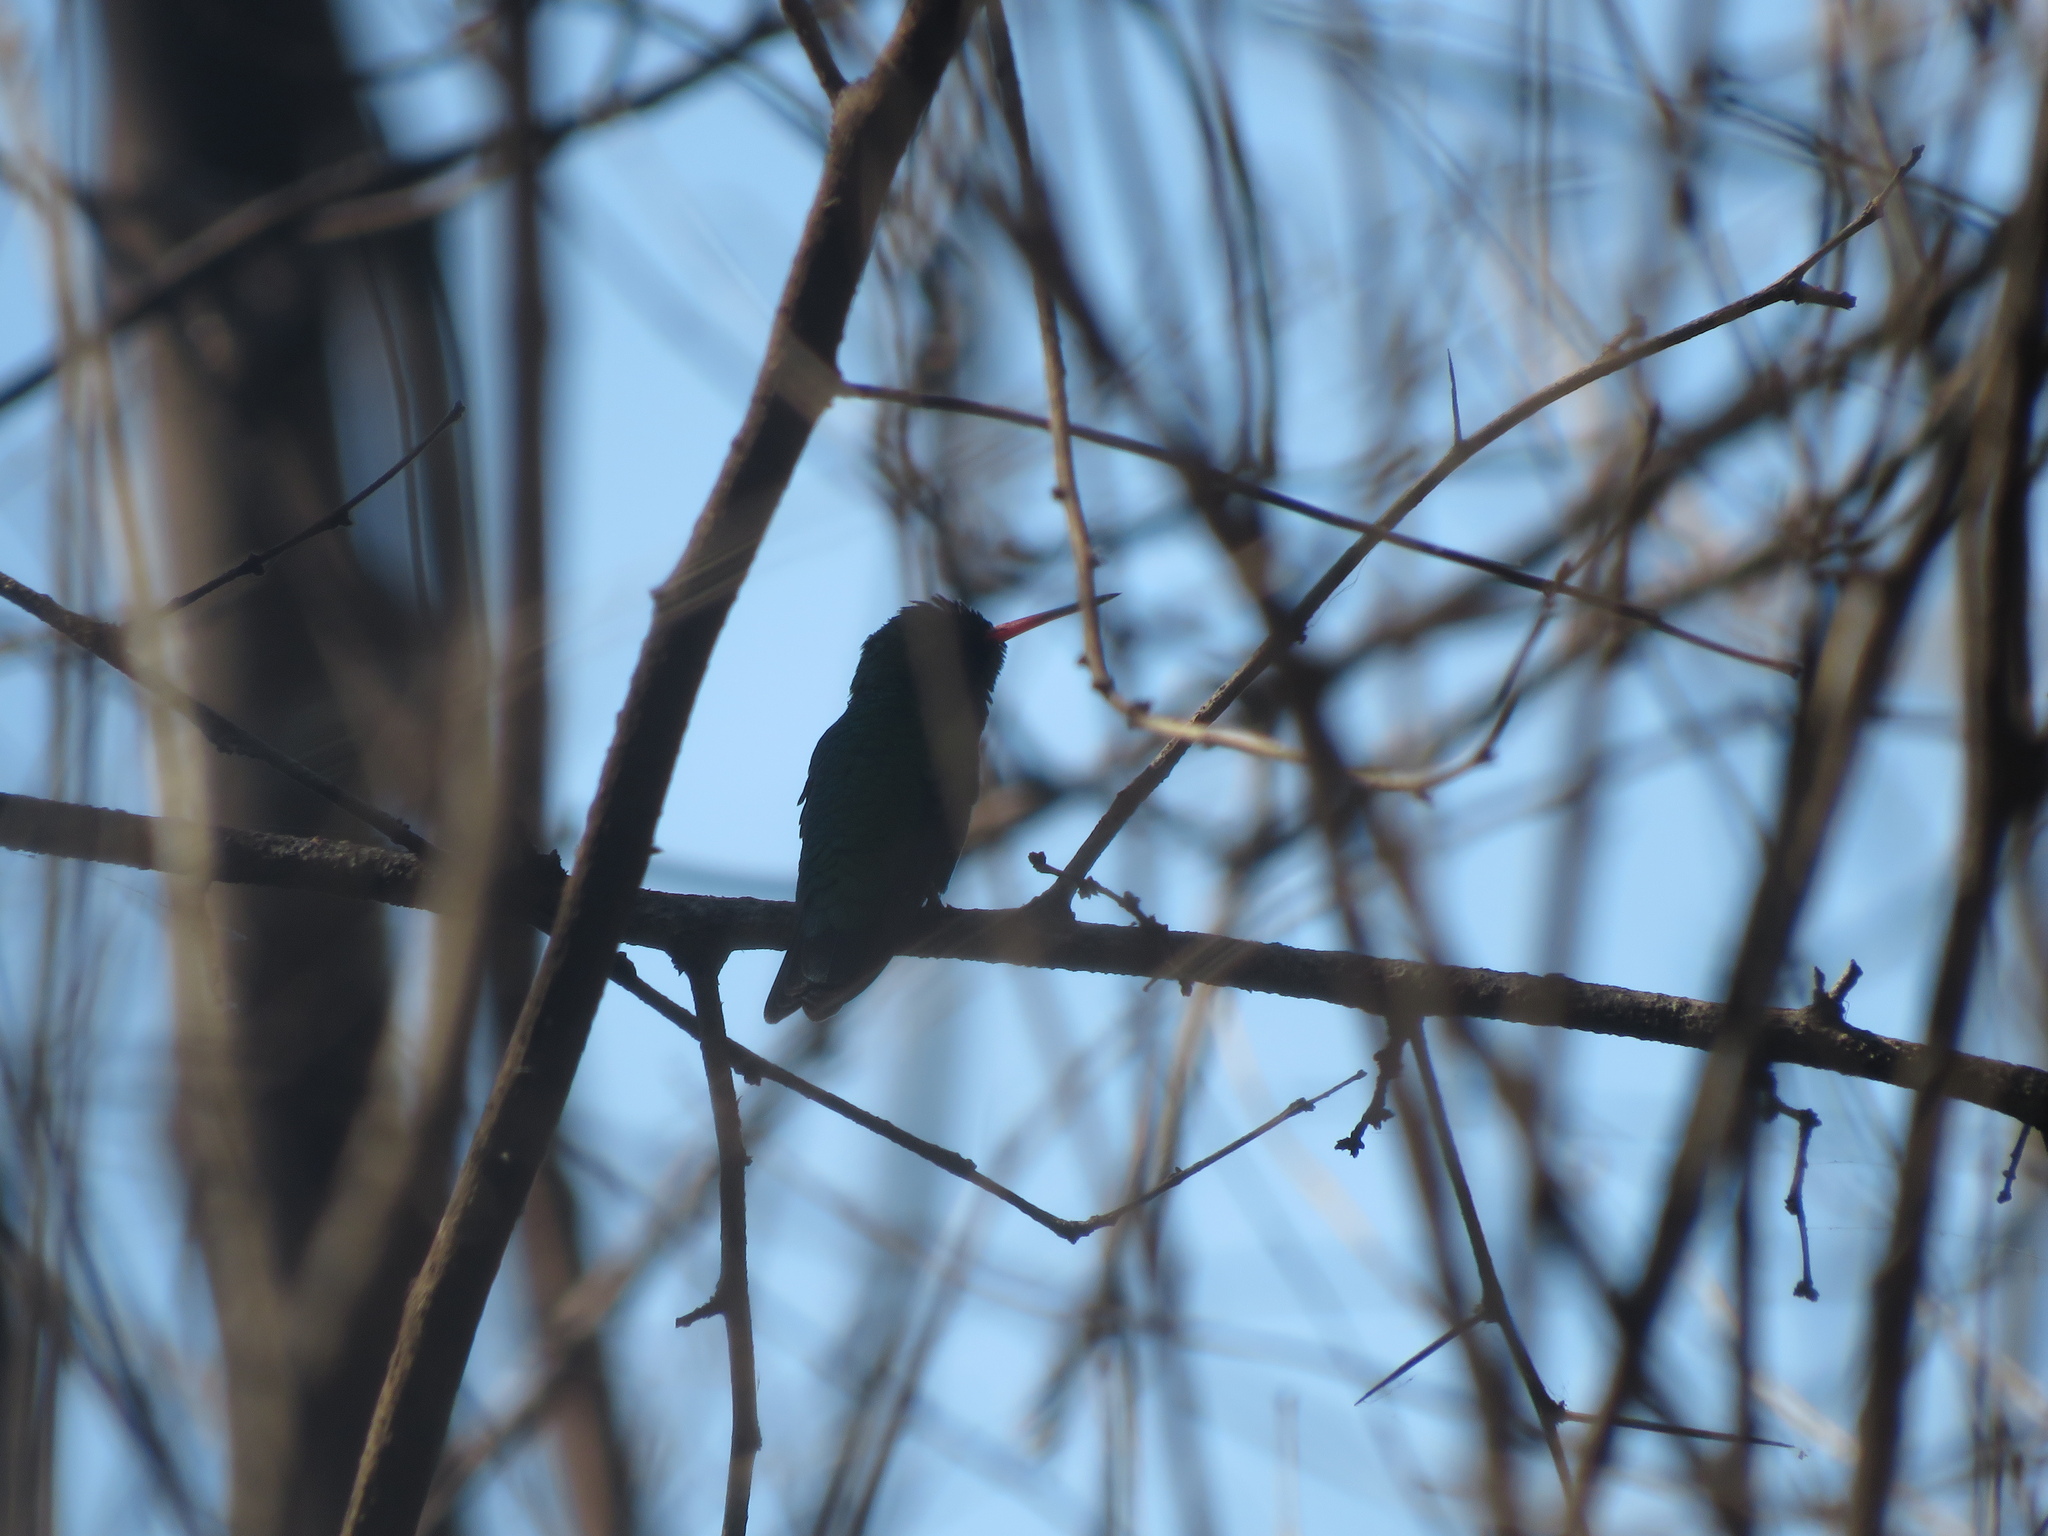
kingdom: Animalia
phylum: Chordata
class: Aves
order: Apodiformes
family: Trochilidae
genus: Chlorostilbon
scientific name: Chlorostilbon lucidus
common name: Glittering-bellied emerald
